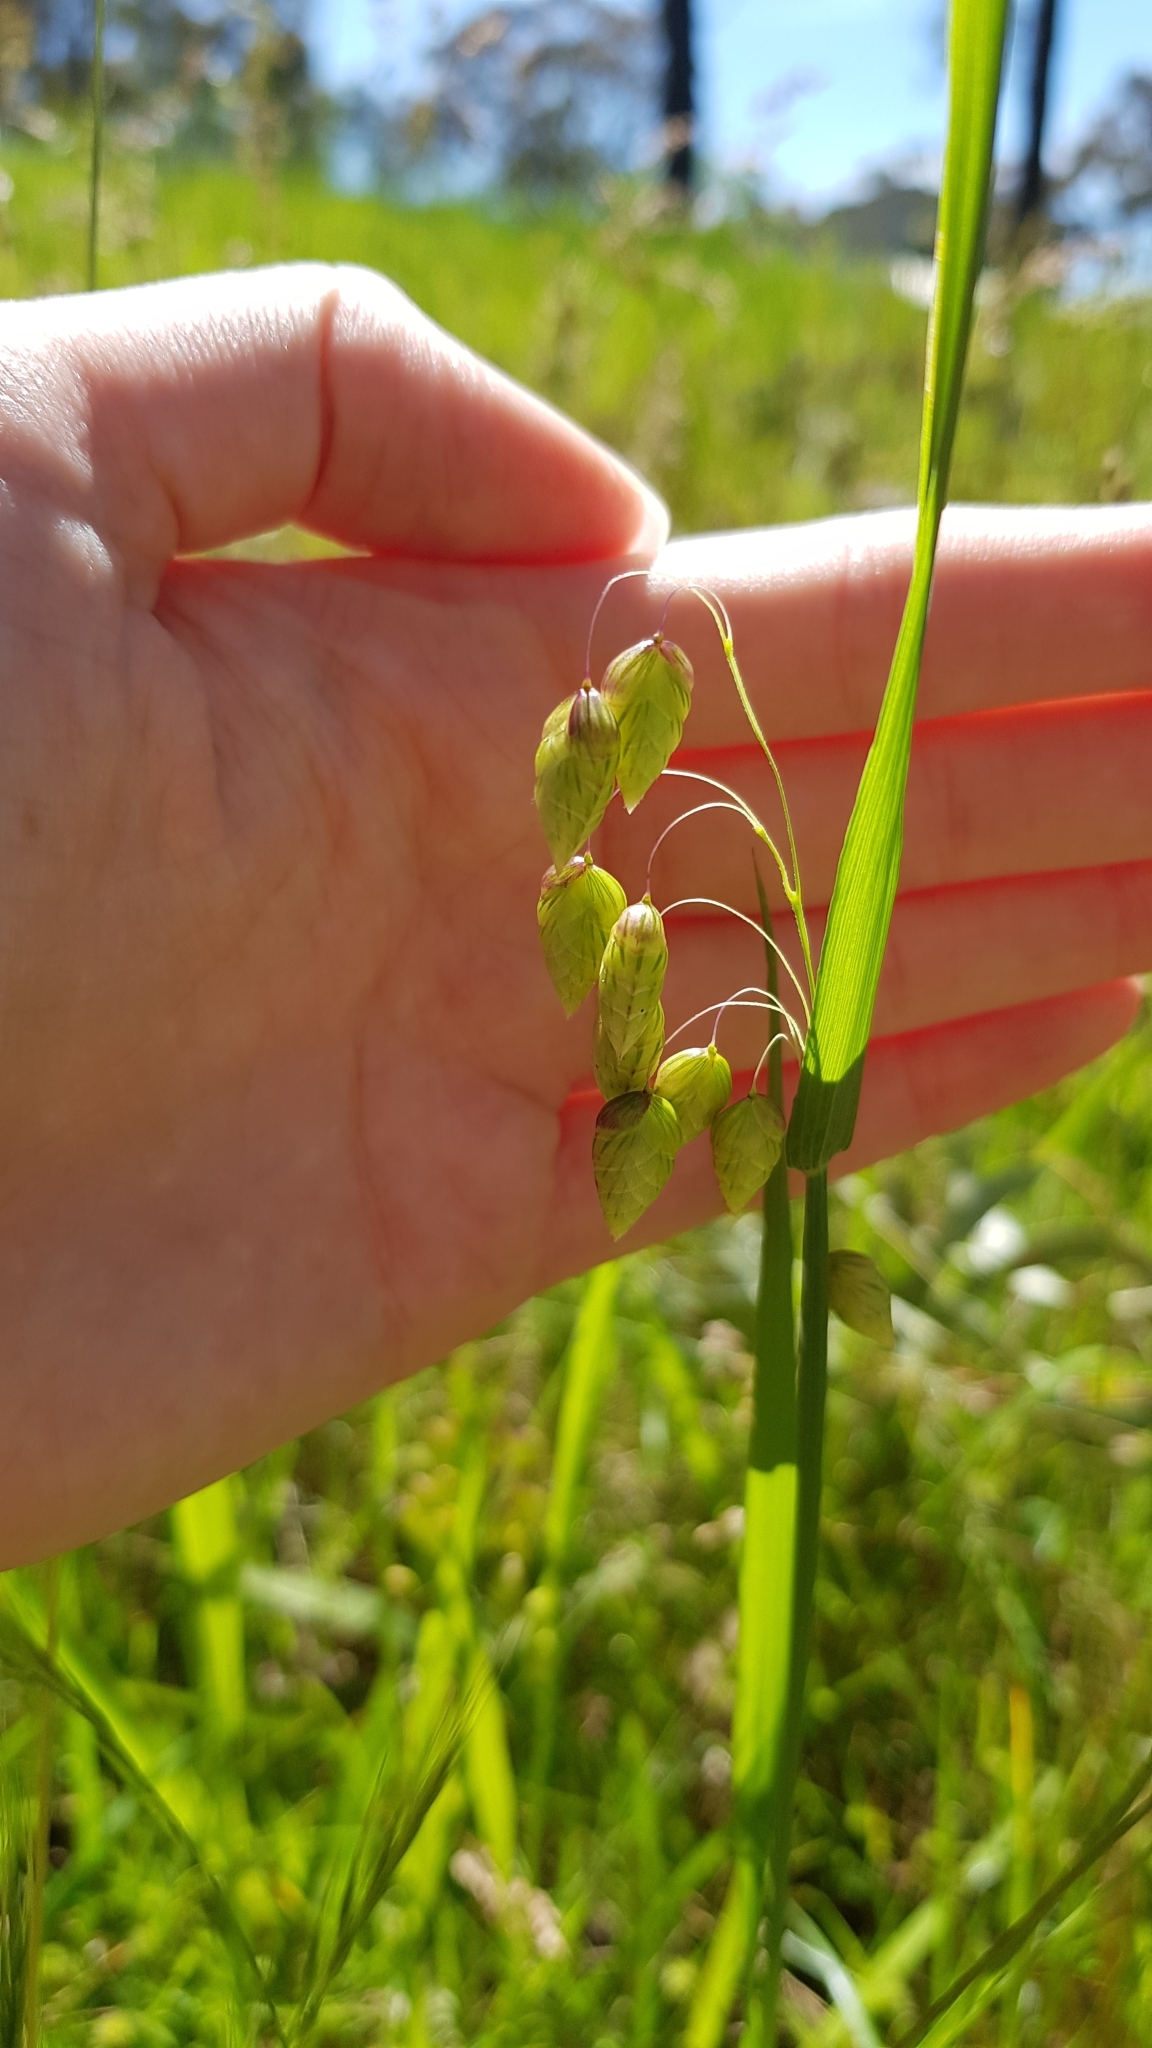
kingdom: Plantae
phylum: Tracheophyta
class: Liliopsida
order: Poales
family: Poaceae
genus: Briza
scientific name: Briza maxima
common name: Big quakinggrass
